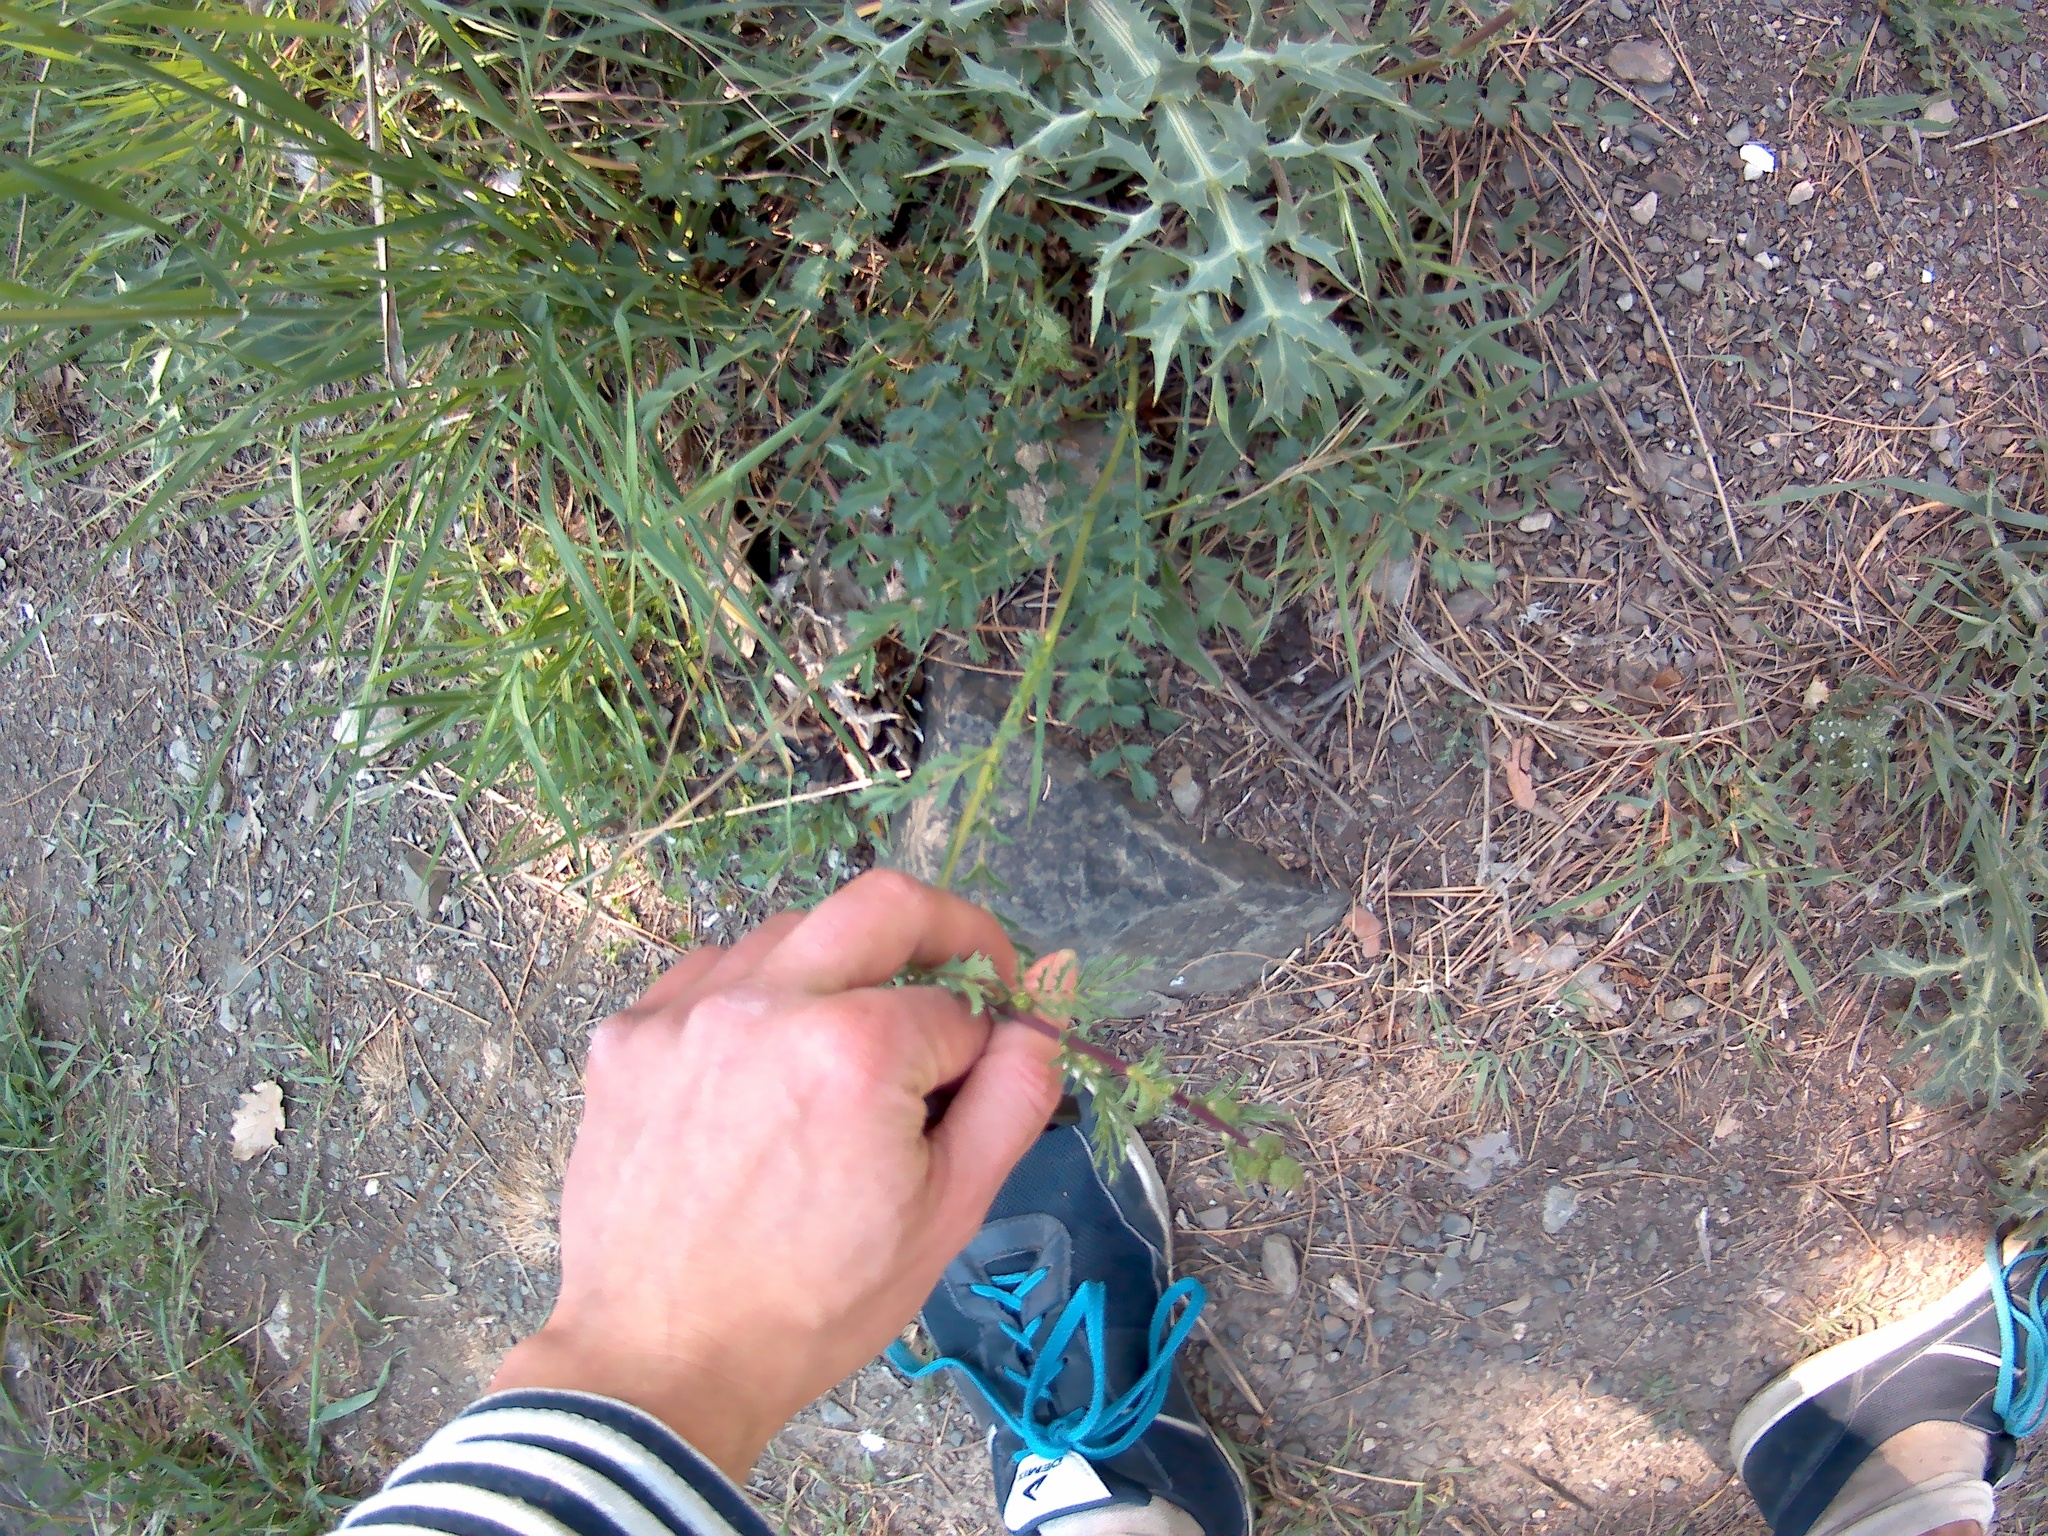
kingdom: Plantae
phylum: Tracheophyta
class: Magnoliopsida
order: Rosales
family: Rosaceae
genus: Poterium
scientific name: Poterium sanguisorba
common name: Salad burnet
